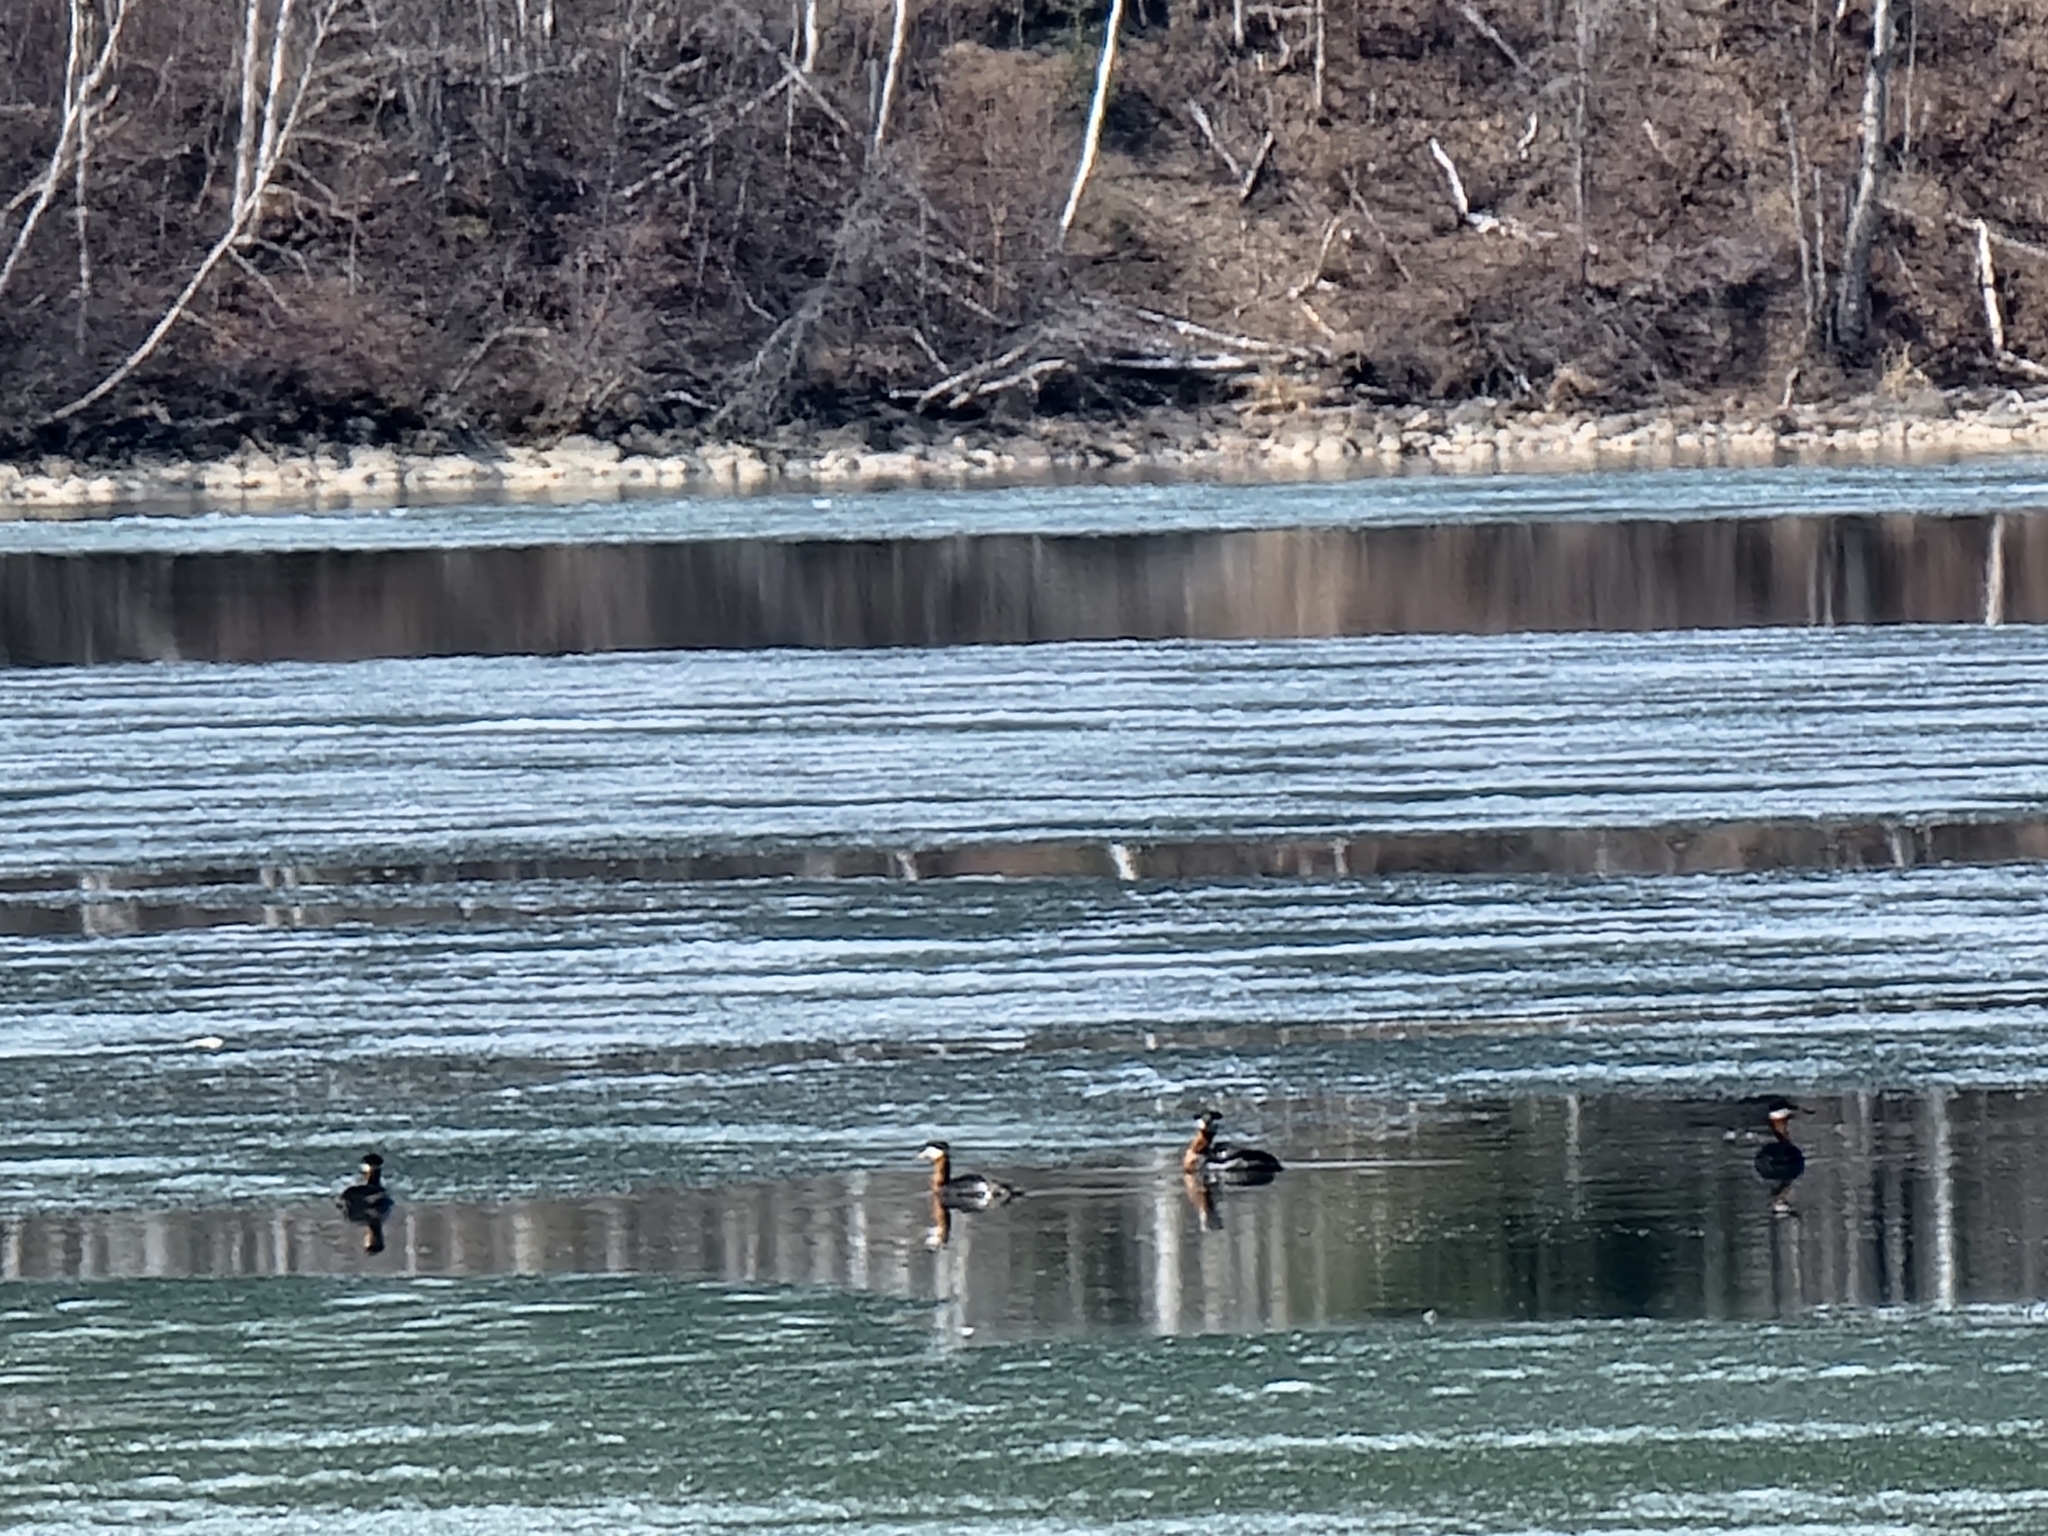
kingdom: Animalia
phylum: Chordata
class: Aves
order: Podicipediformes
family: Podicipedidae
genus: Podiceps
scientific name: Podiceps grisegena
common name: Red-necked grebe
